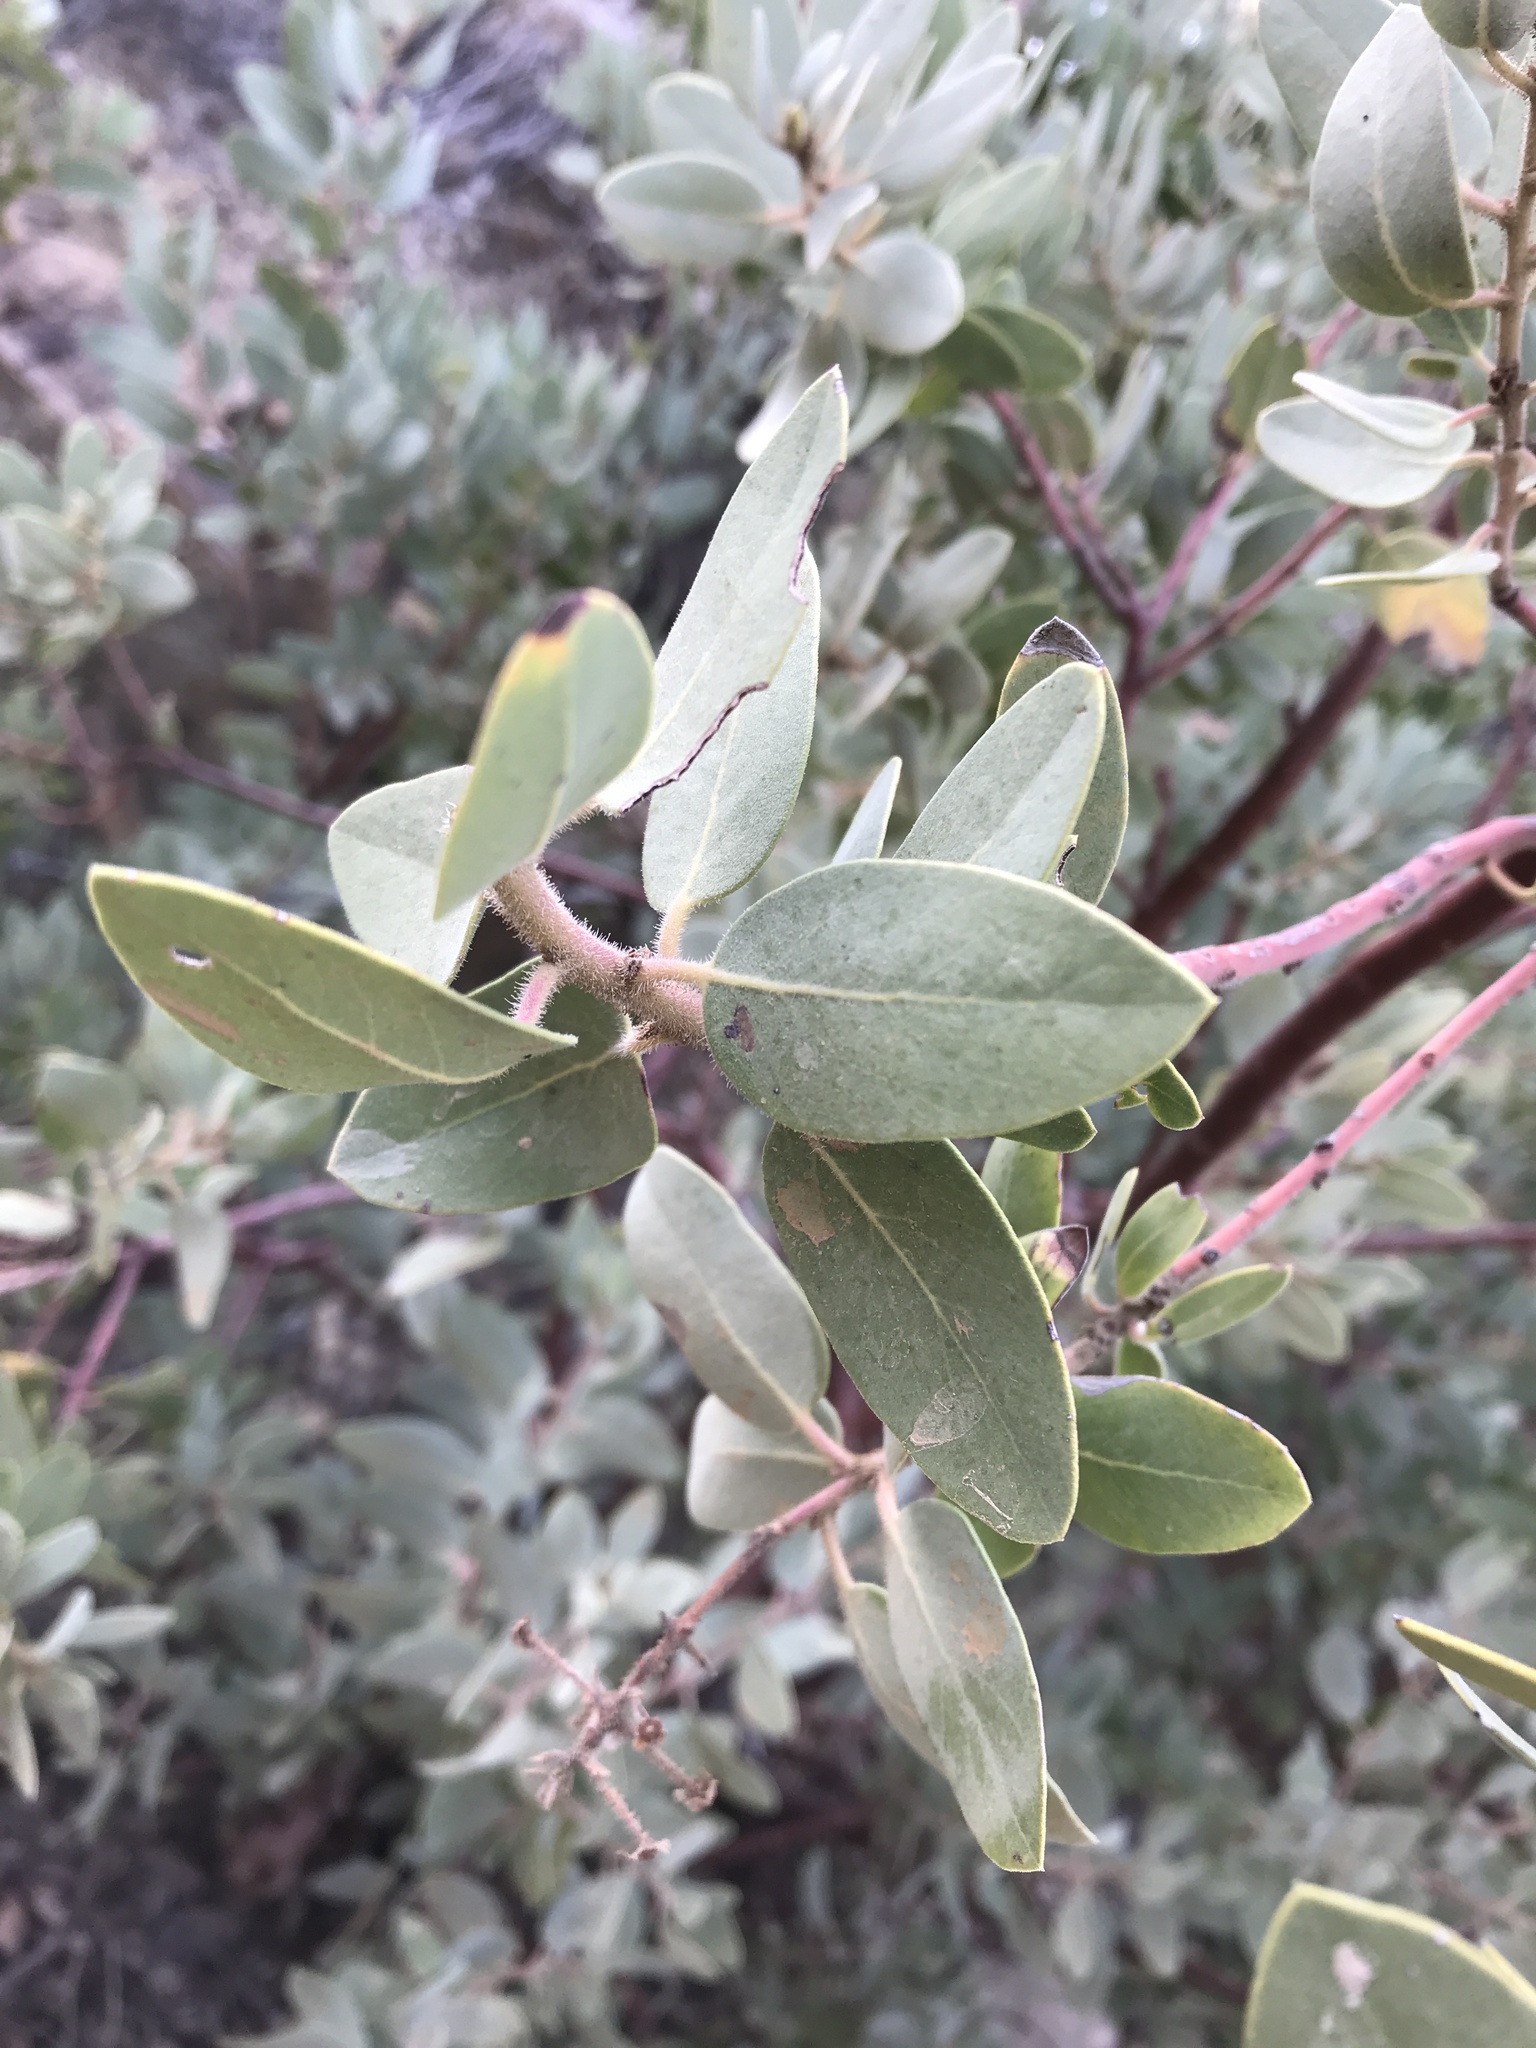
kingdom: Plantae
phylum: Tracheophyta
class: Magnoliopsida
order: Ericales
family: Ericaceae
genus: Arctostaphylos
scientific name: Arctostaphylos pringlei
